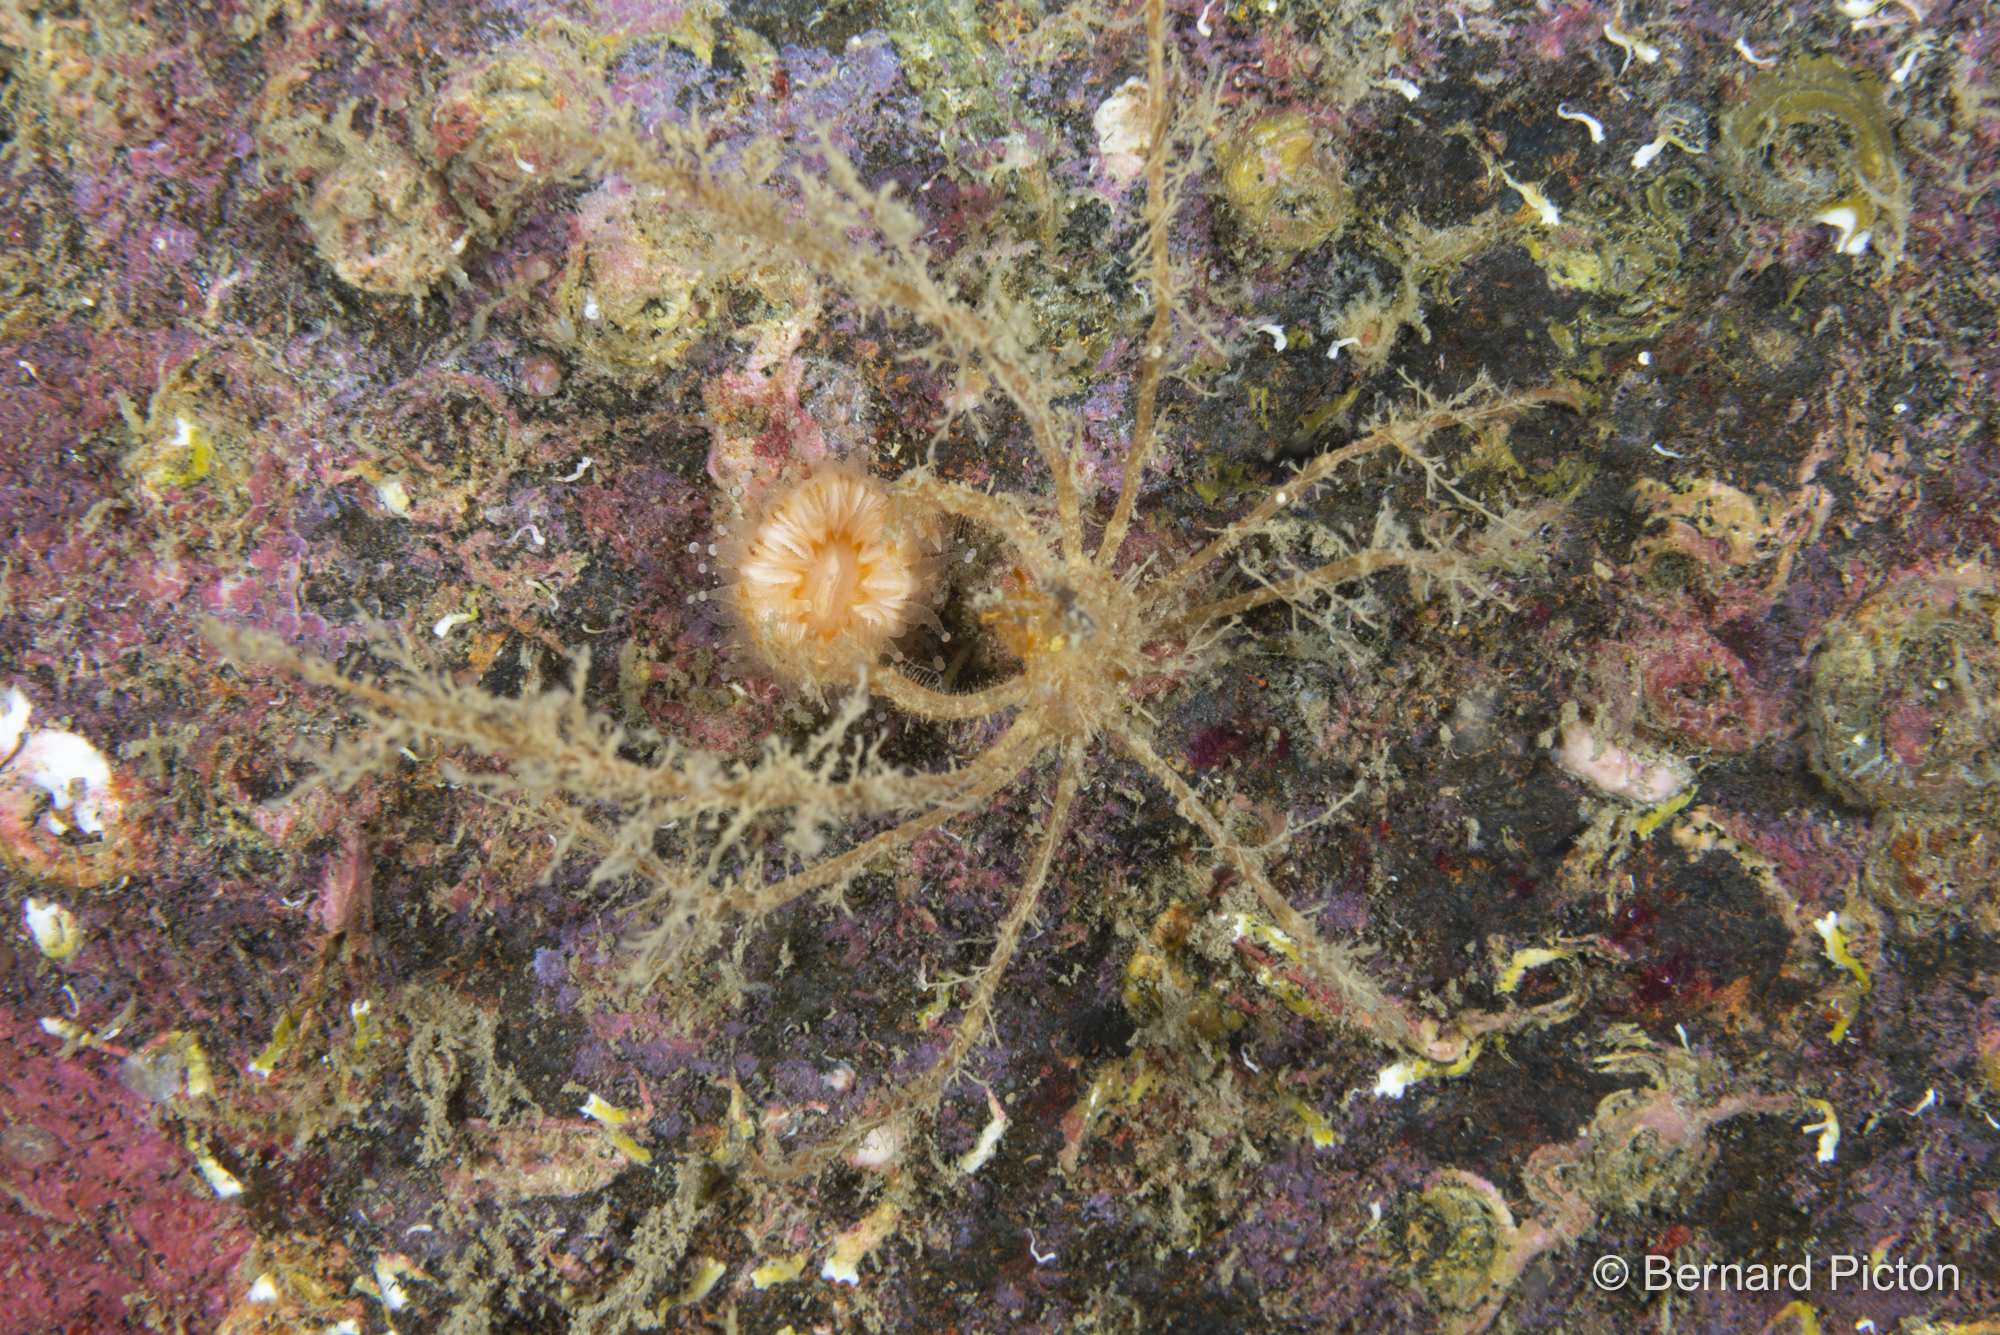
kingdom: Animalia
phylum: Arthropoda
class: Malacostraca
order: Decapoda
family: Inachidae
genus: Macropodia
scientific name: Macropodia rostrata
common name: Long-legged spider crab
